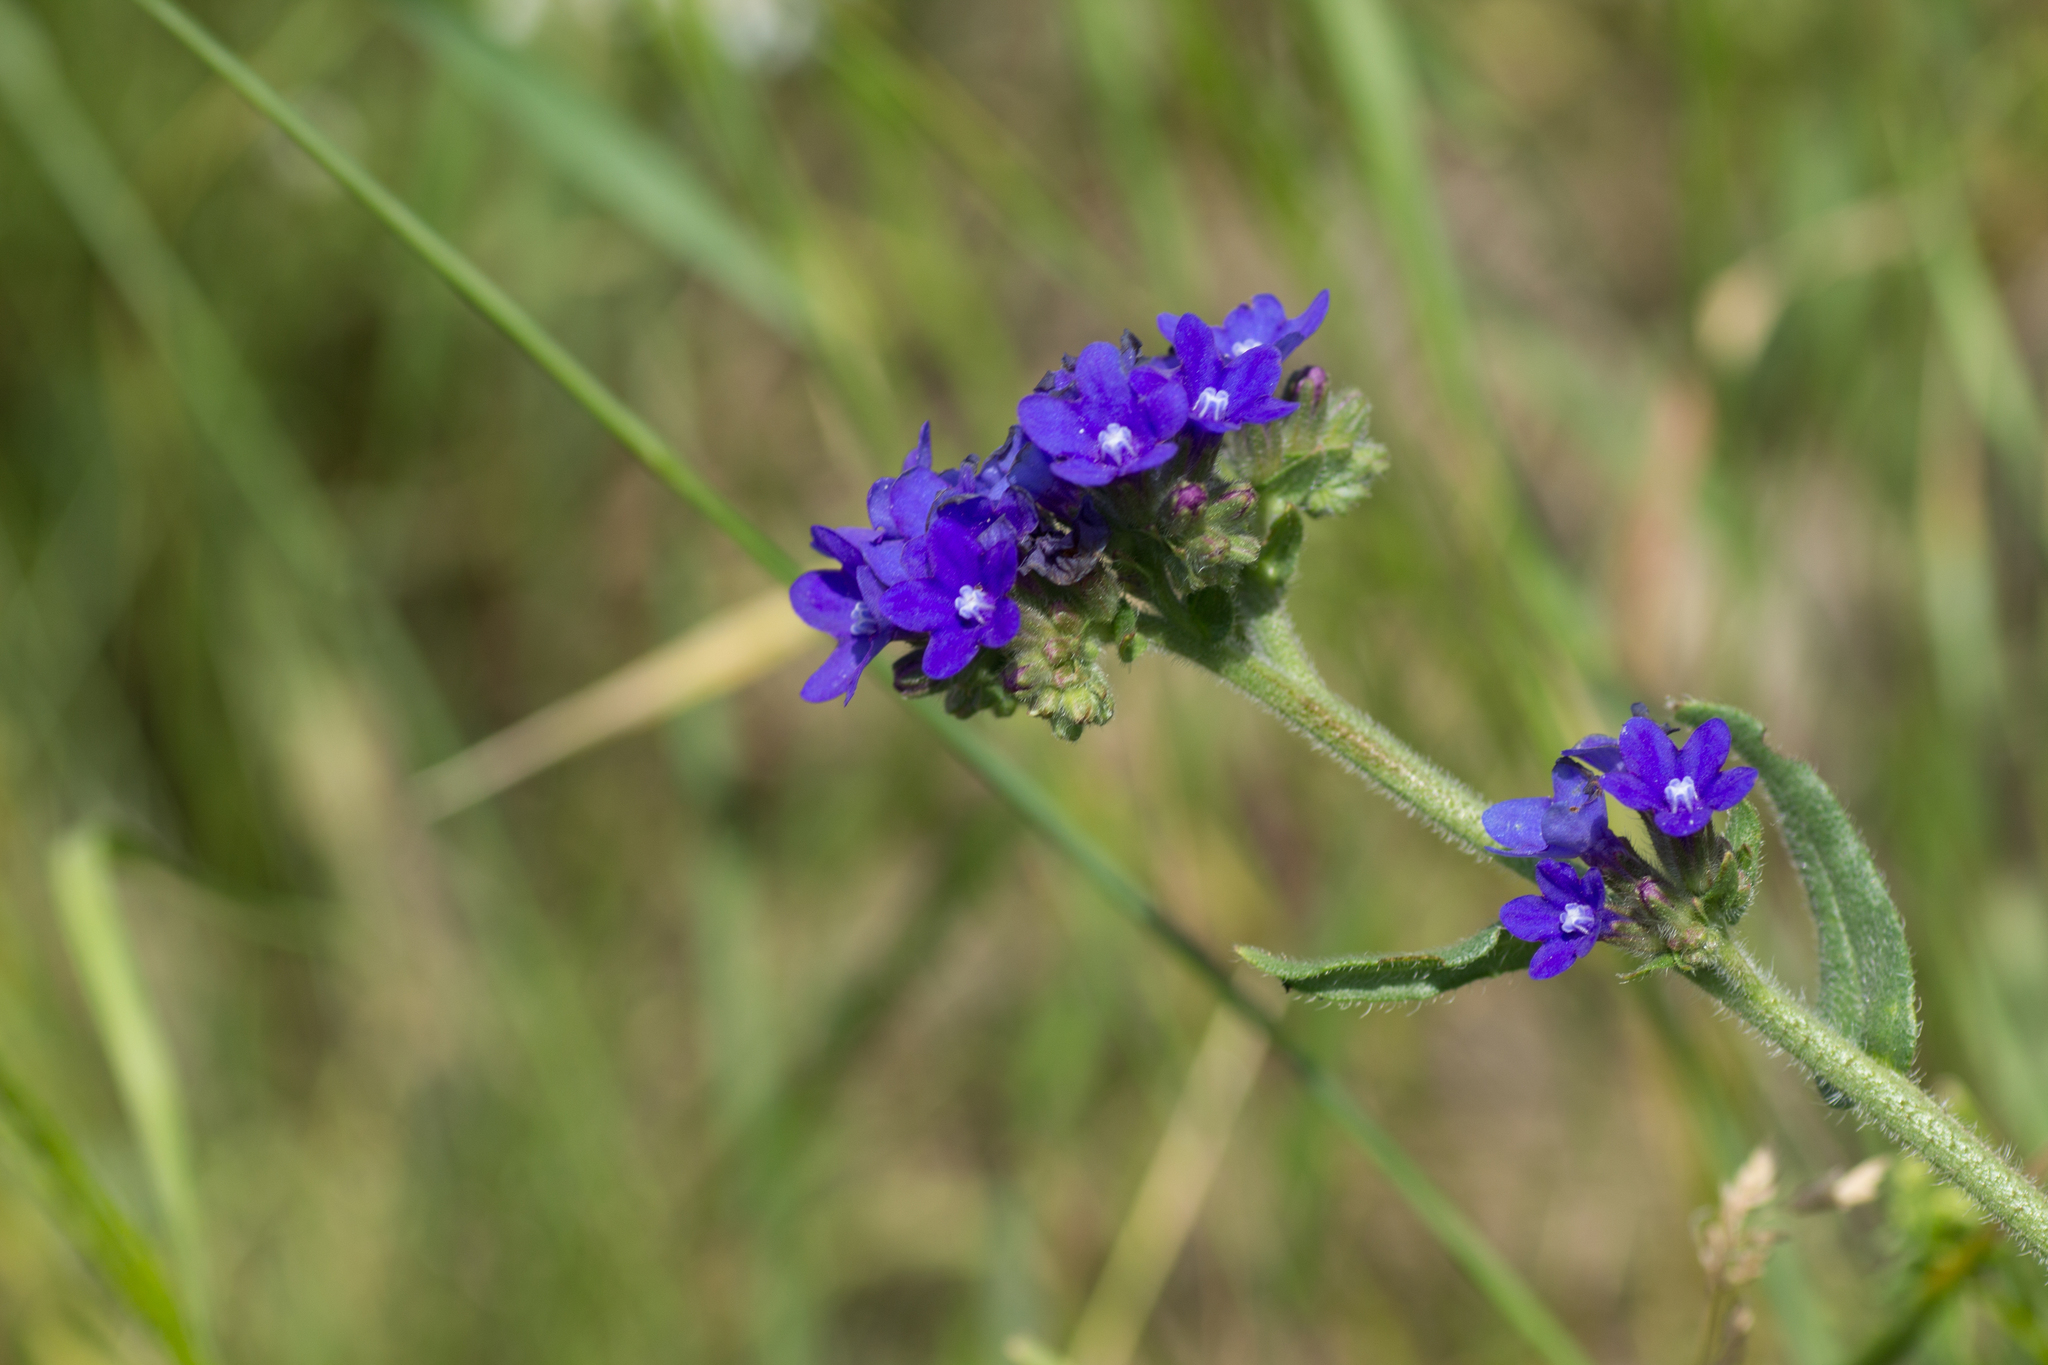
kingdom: Plantae
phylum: Tracheophyta
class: Magnoliopsida
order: Boraginales
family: Boraginaceae
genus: Anchusa
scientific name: Anchusa officinalis
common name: Alkanet
